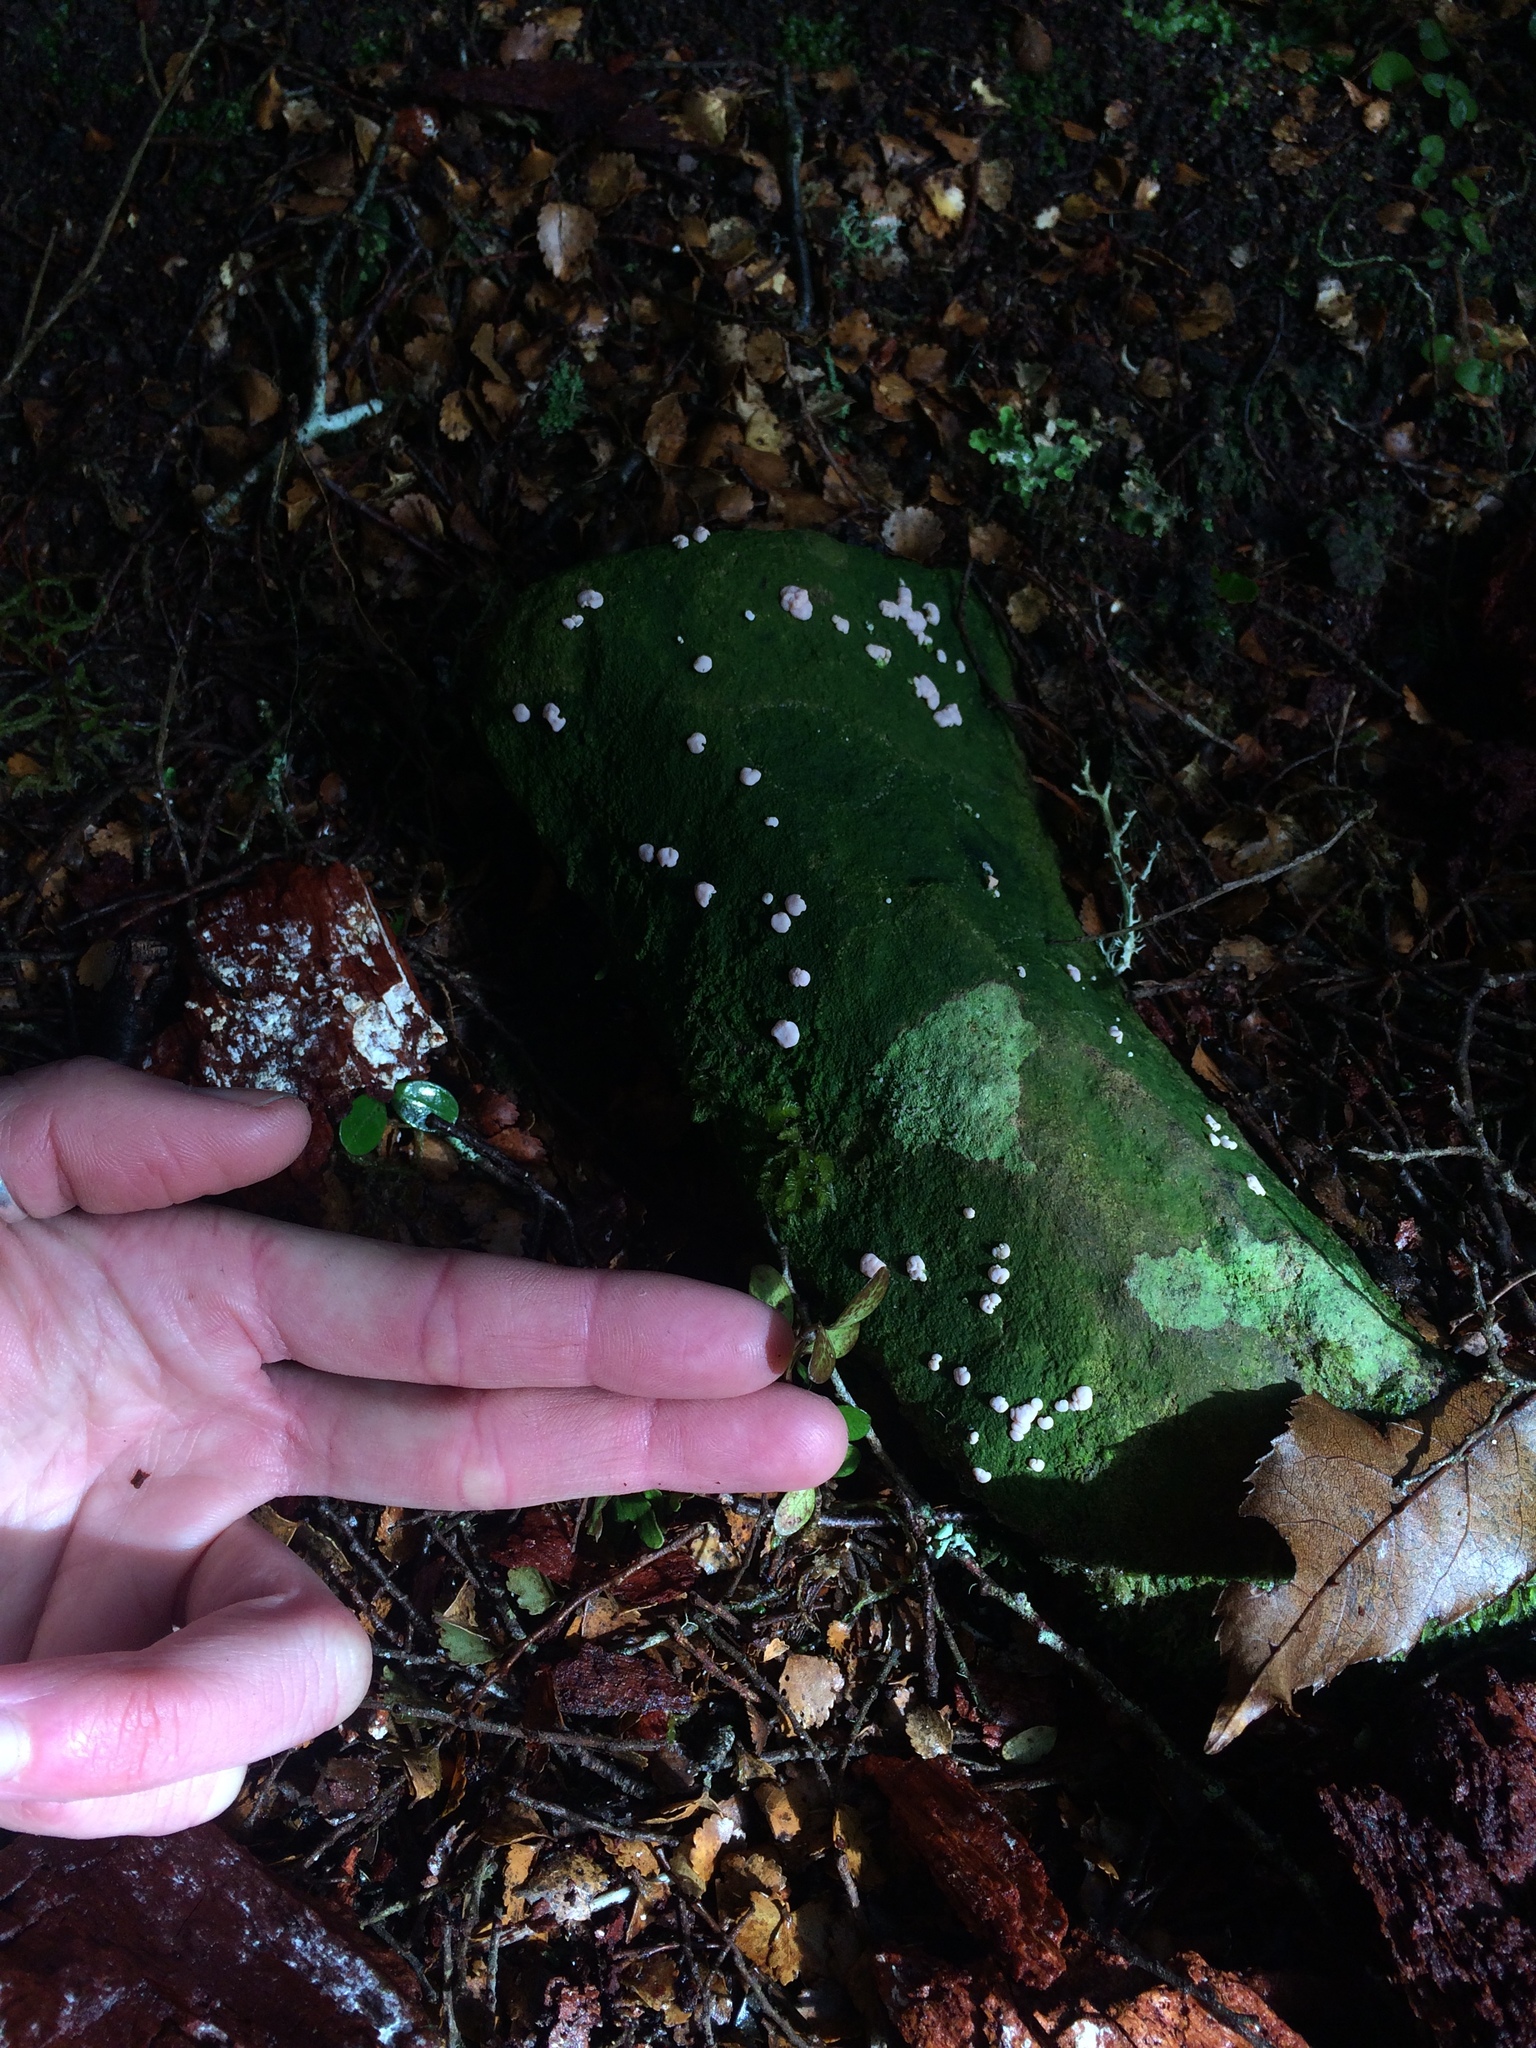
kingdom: Fungi
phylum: Ascomycota
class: Lecanoromycetes
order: Pertusariales
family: Icmadophilaceae
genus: Dibaeis
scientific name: Dibaeis absoluta
